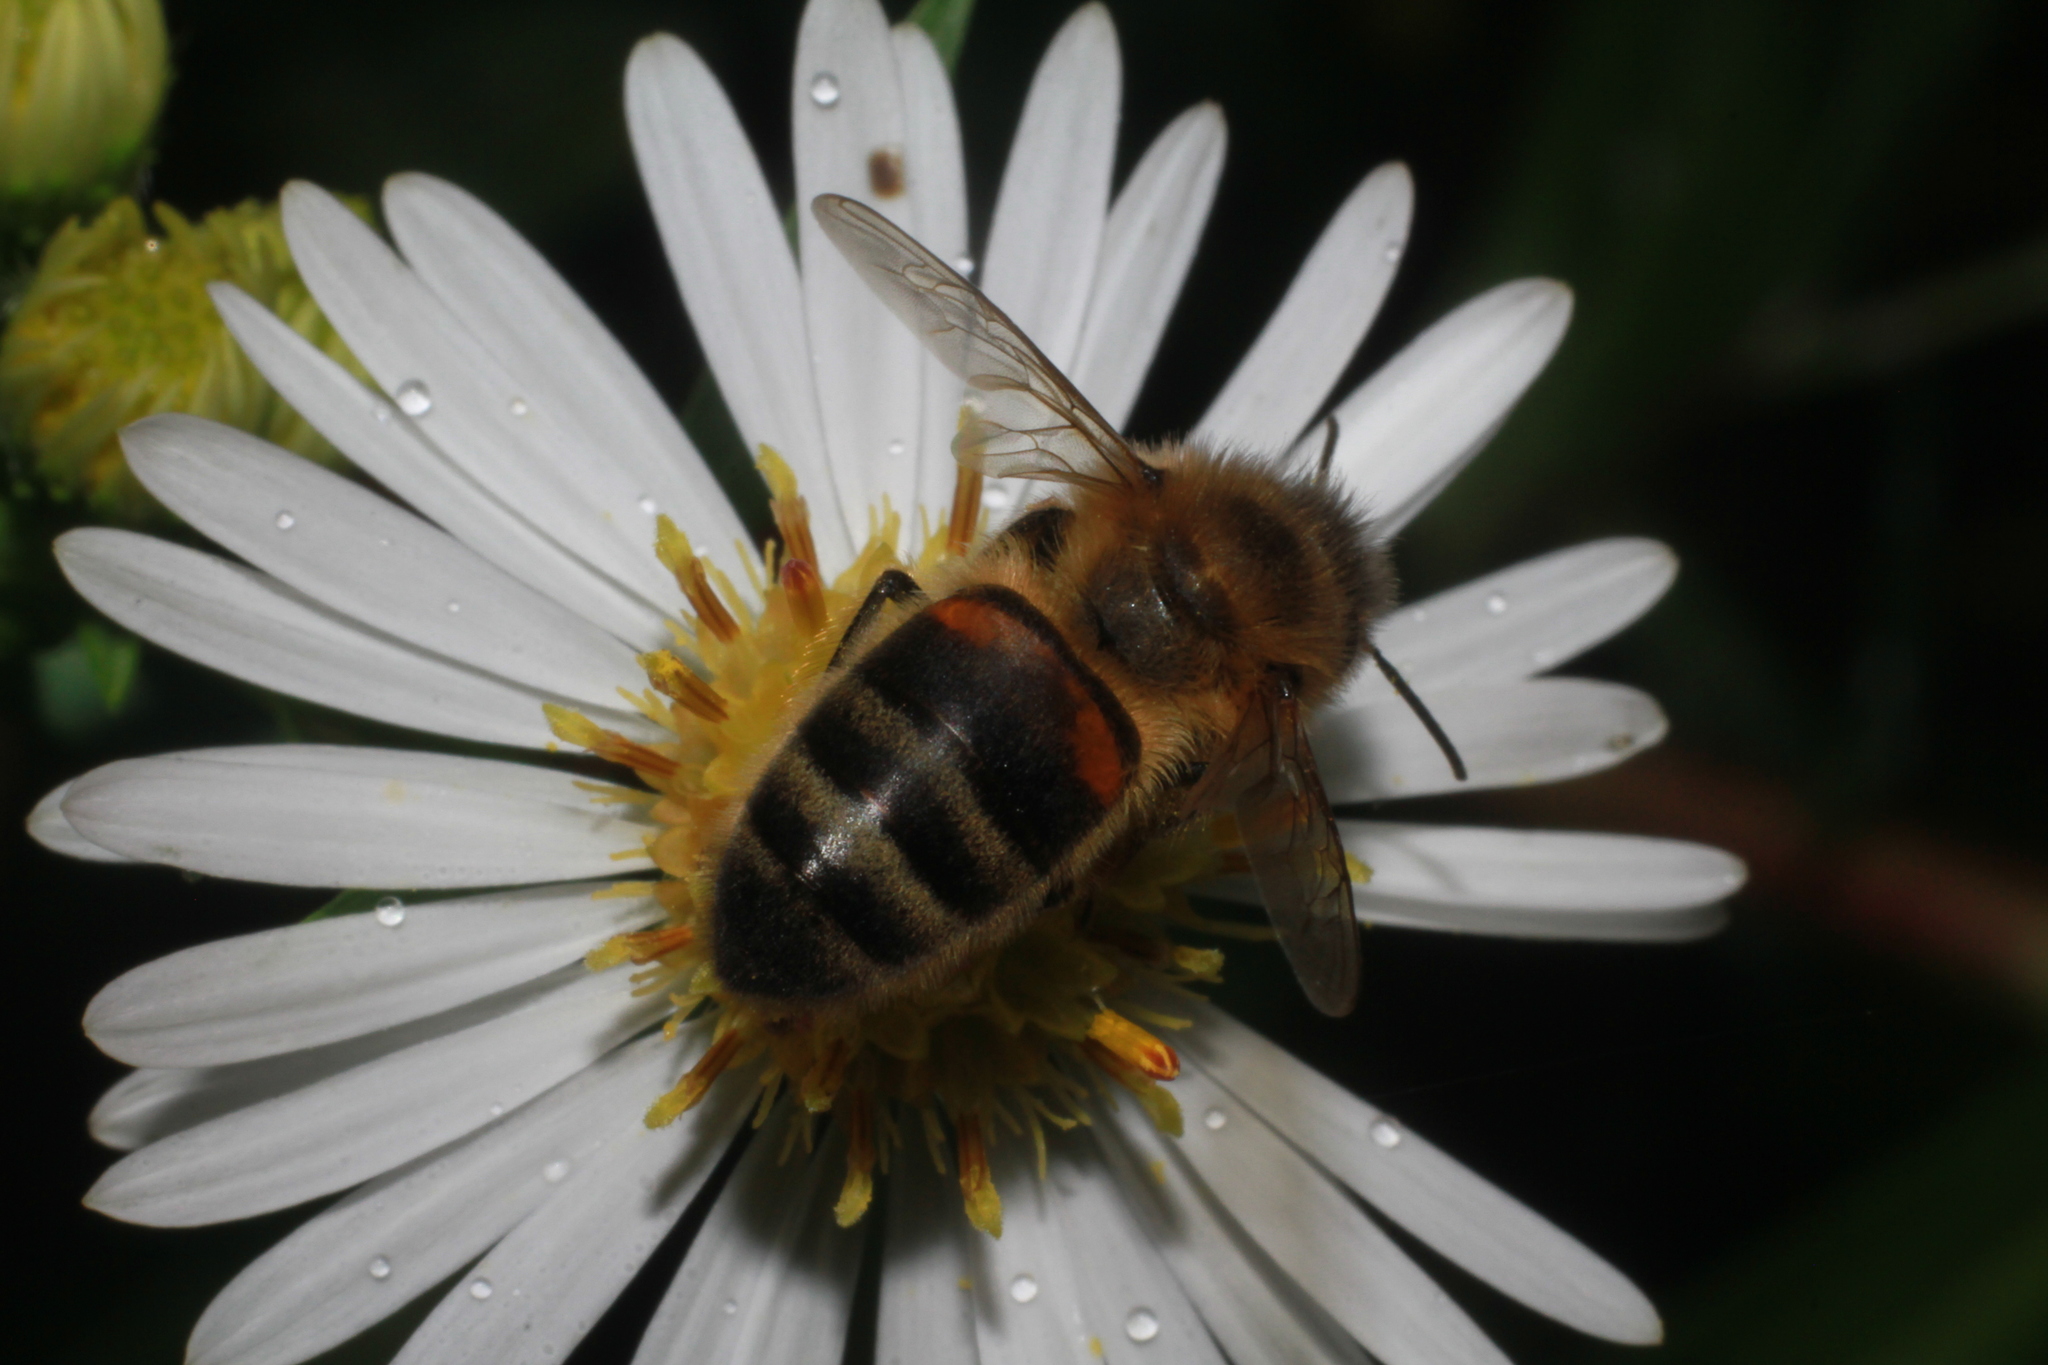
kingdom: Animalia
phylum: Arthropoda
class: Insecta
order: Hymenoptera
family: Apidae
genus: Apis
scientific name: Apis mellifera
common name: Honey bee
